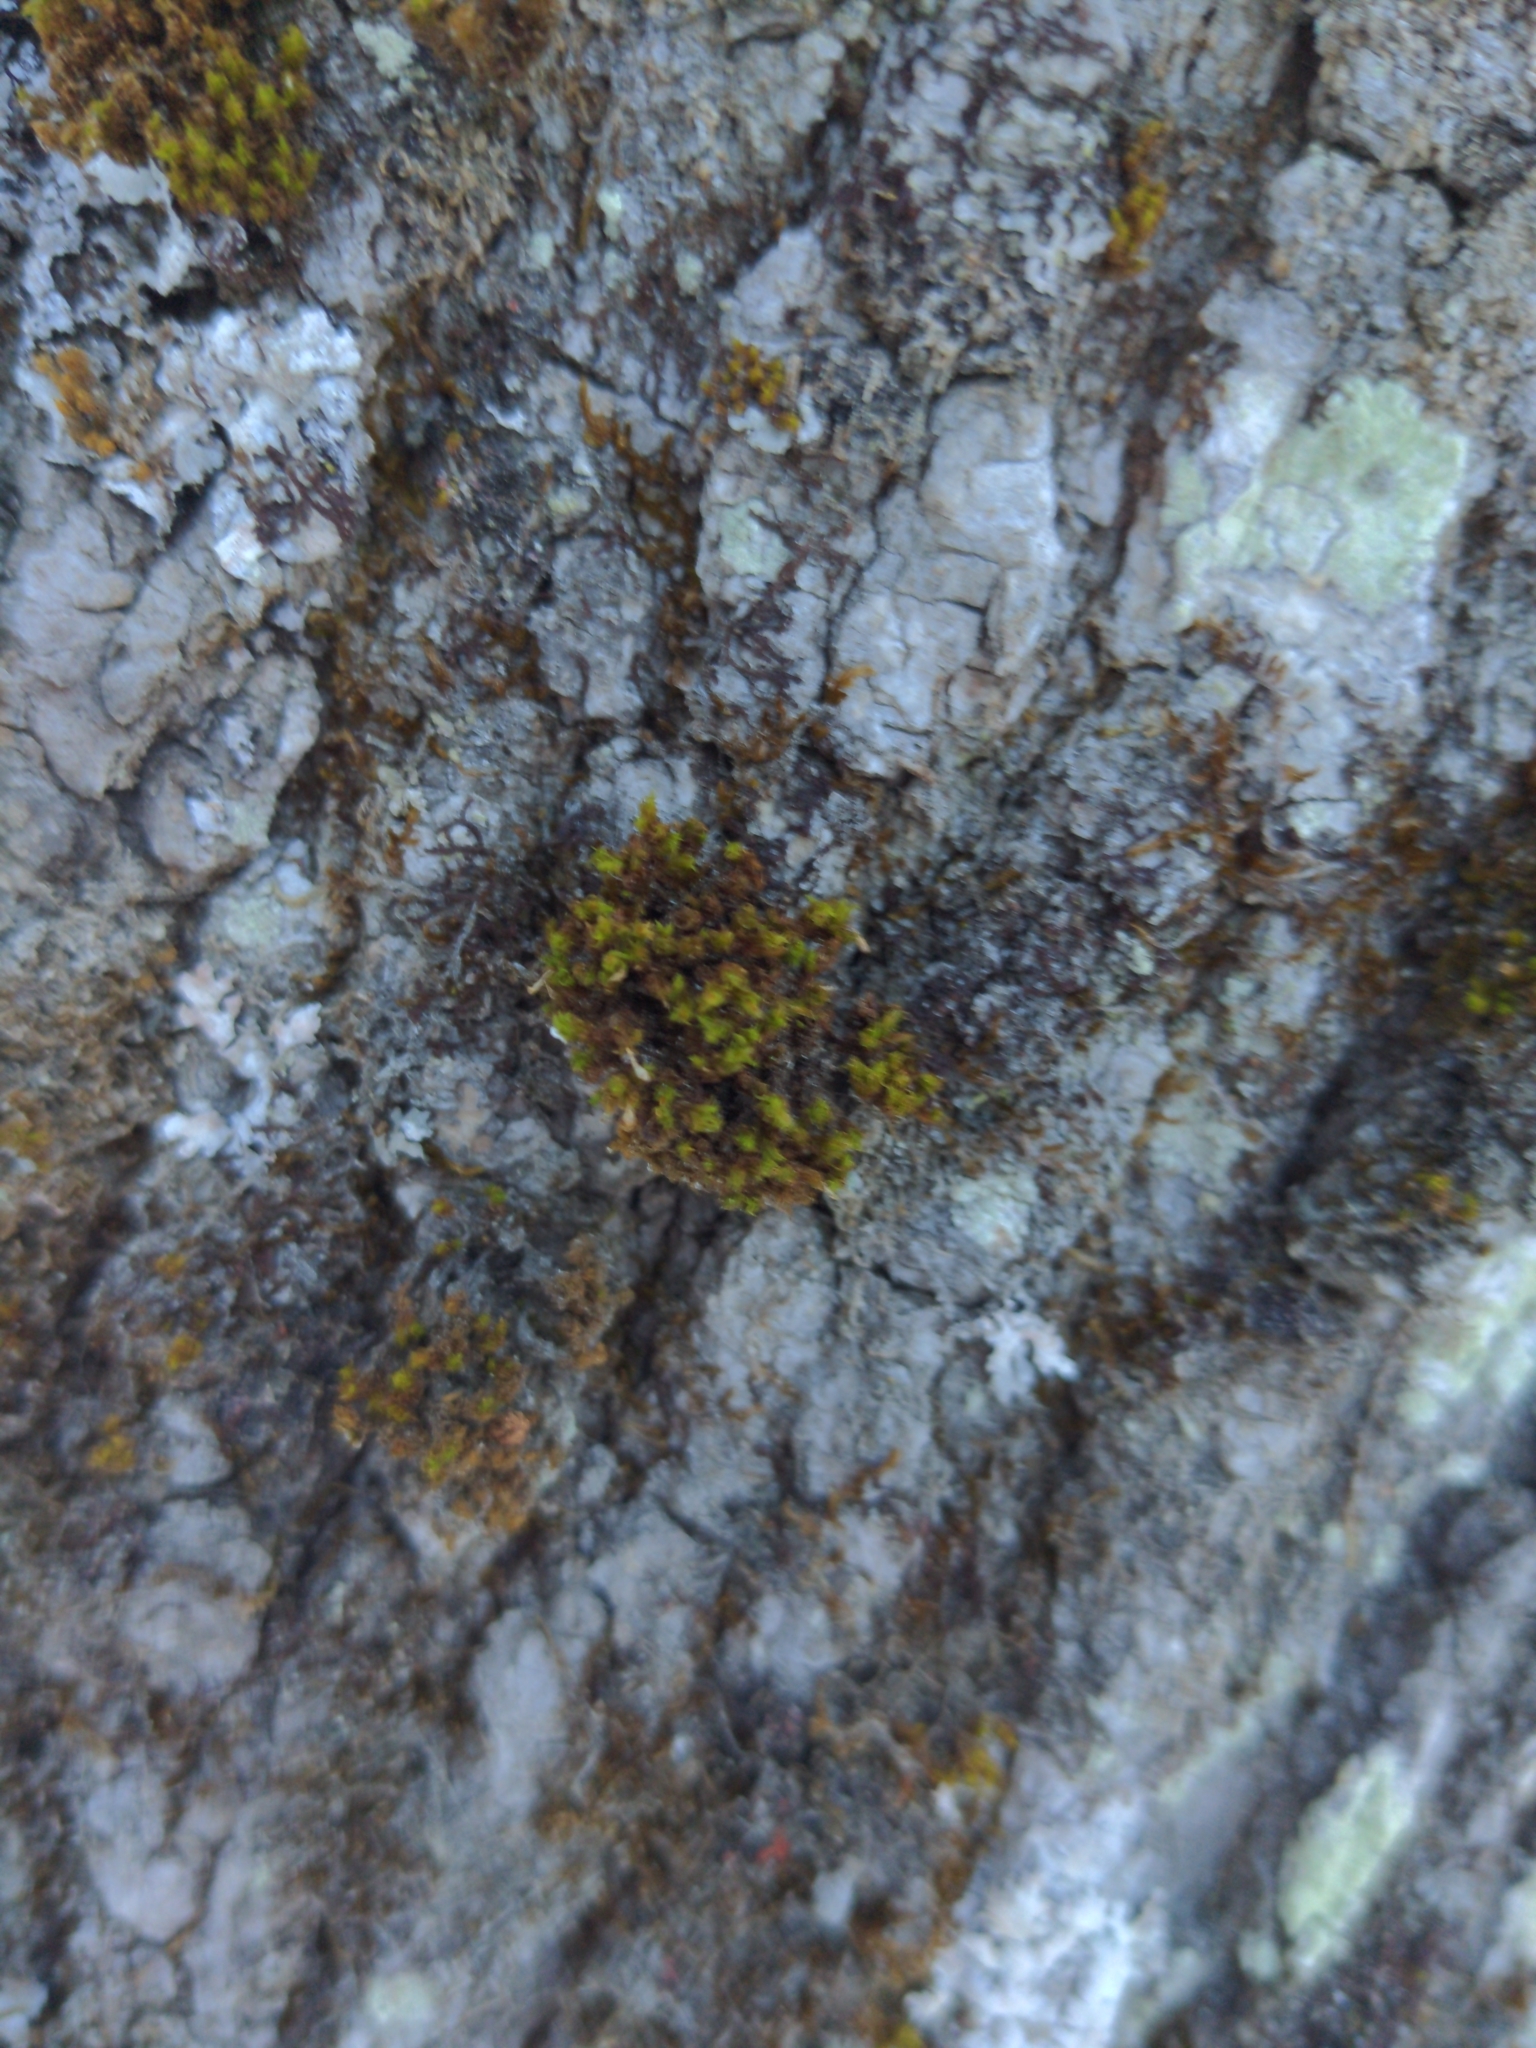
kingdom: Plantae
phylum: Bryophyta
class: Bryopsida
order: Orthotrichales
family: Orthotrichaceae
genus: Ulota
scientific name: Ulota crispa
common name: Crisped pincushion moss
